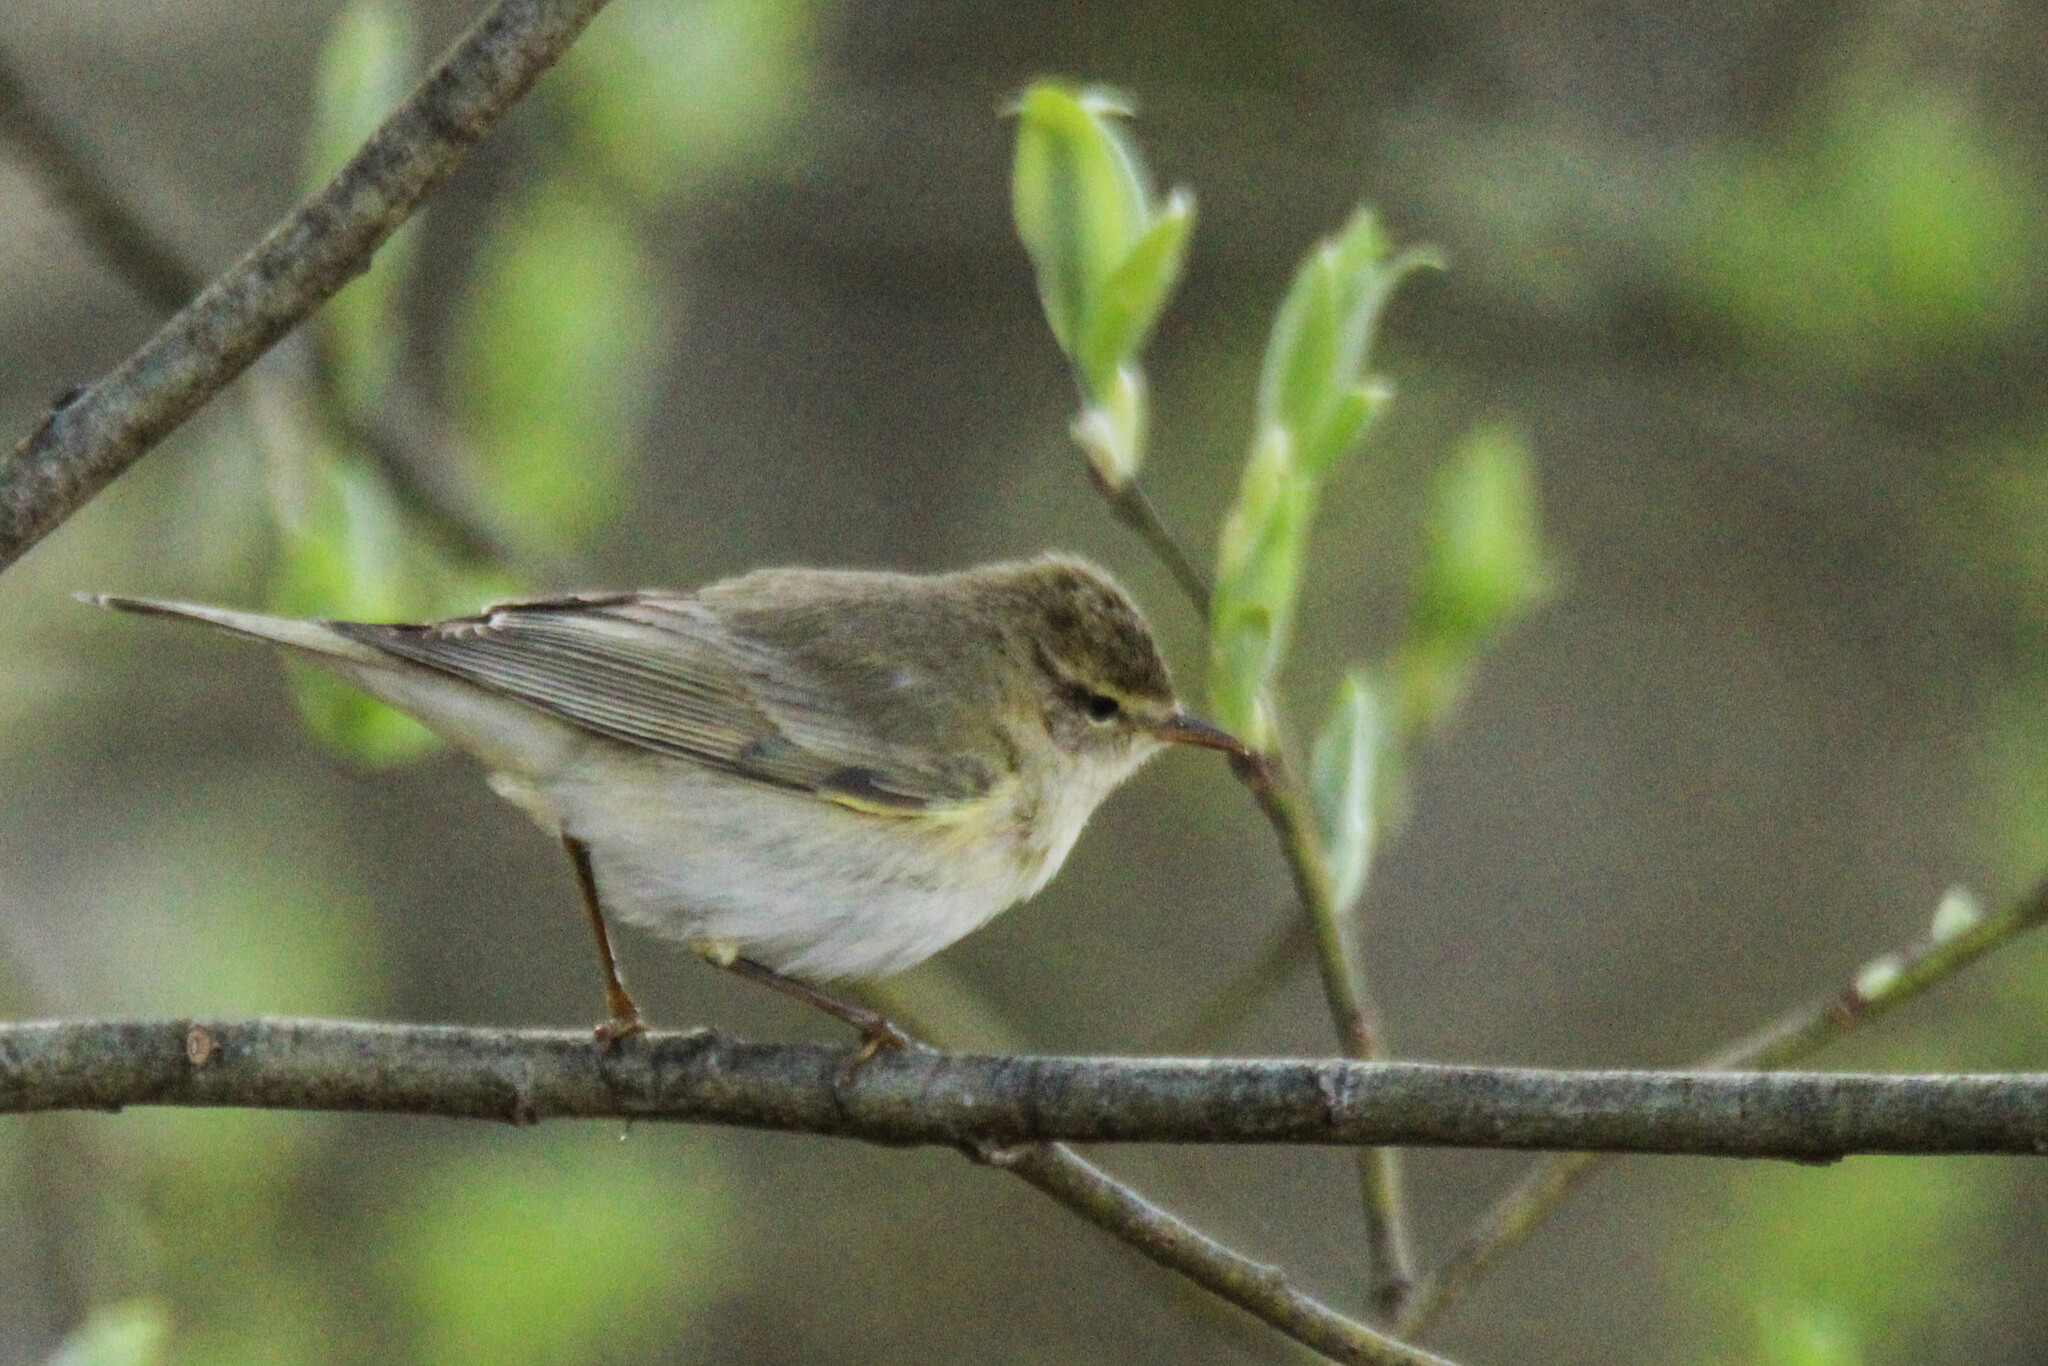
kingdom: Animalia
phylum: Chordata
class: Aves
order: Passeriformes
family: Phylloscopidae
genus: Phylloscopus
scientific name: Phylloscopus trochilus
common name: Willow warbler
